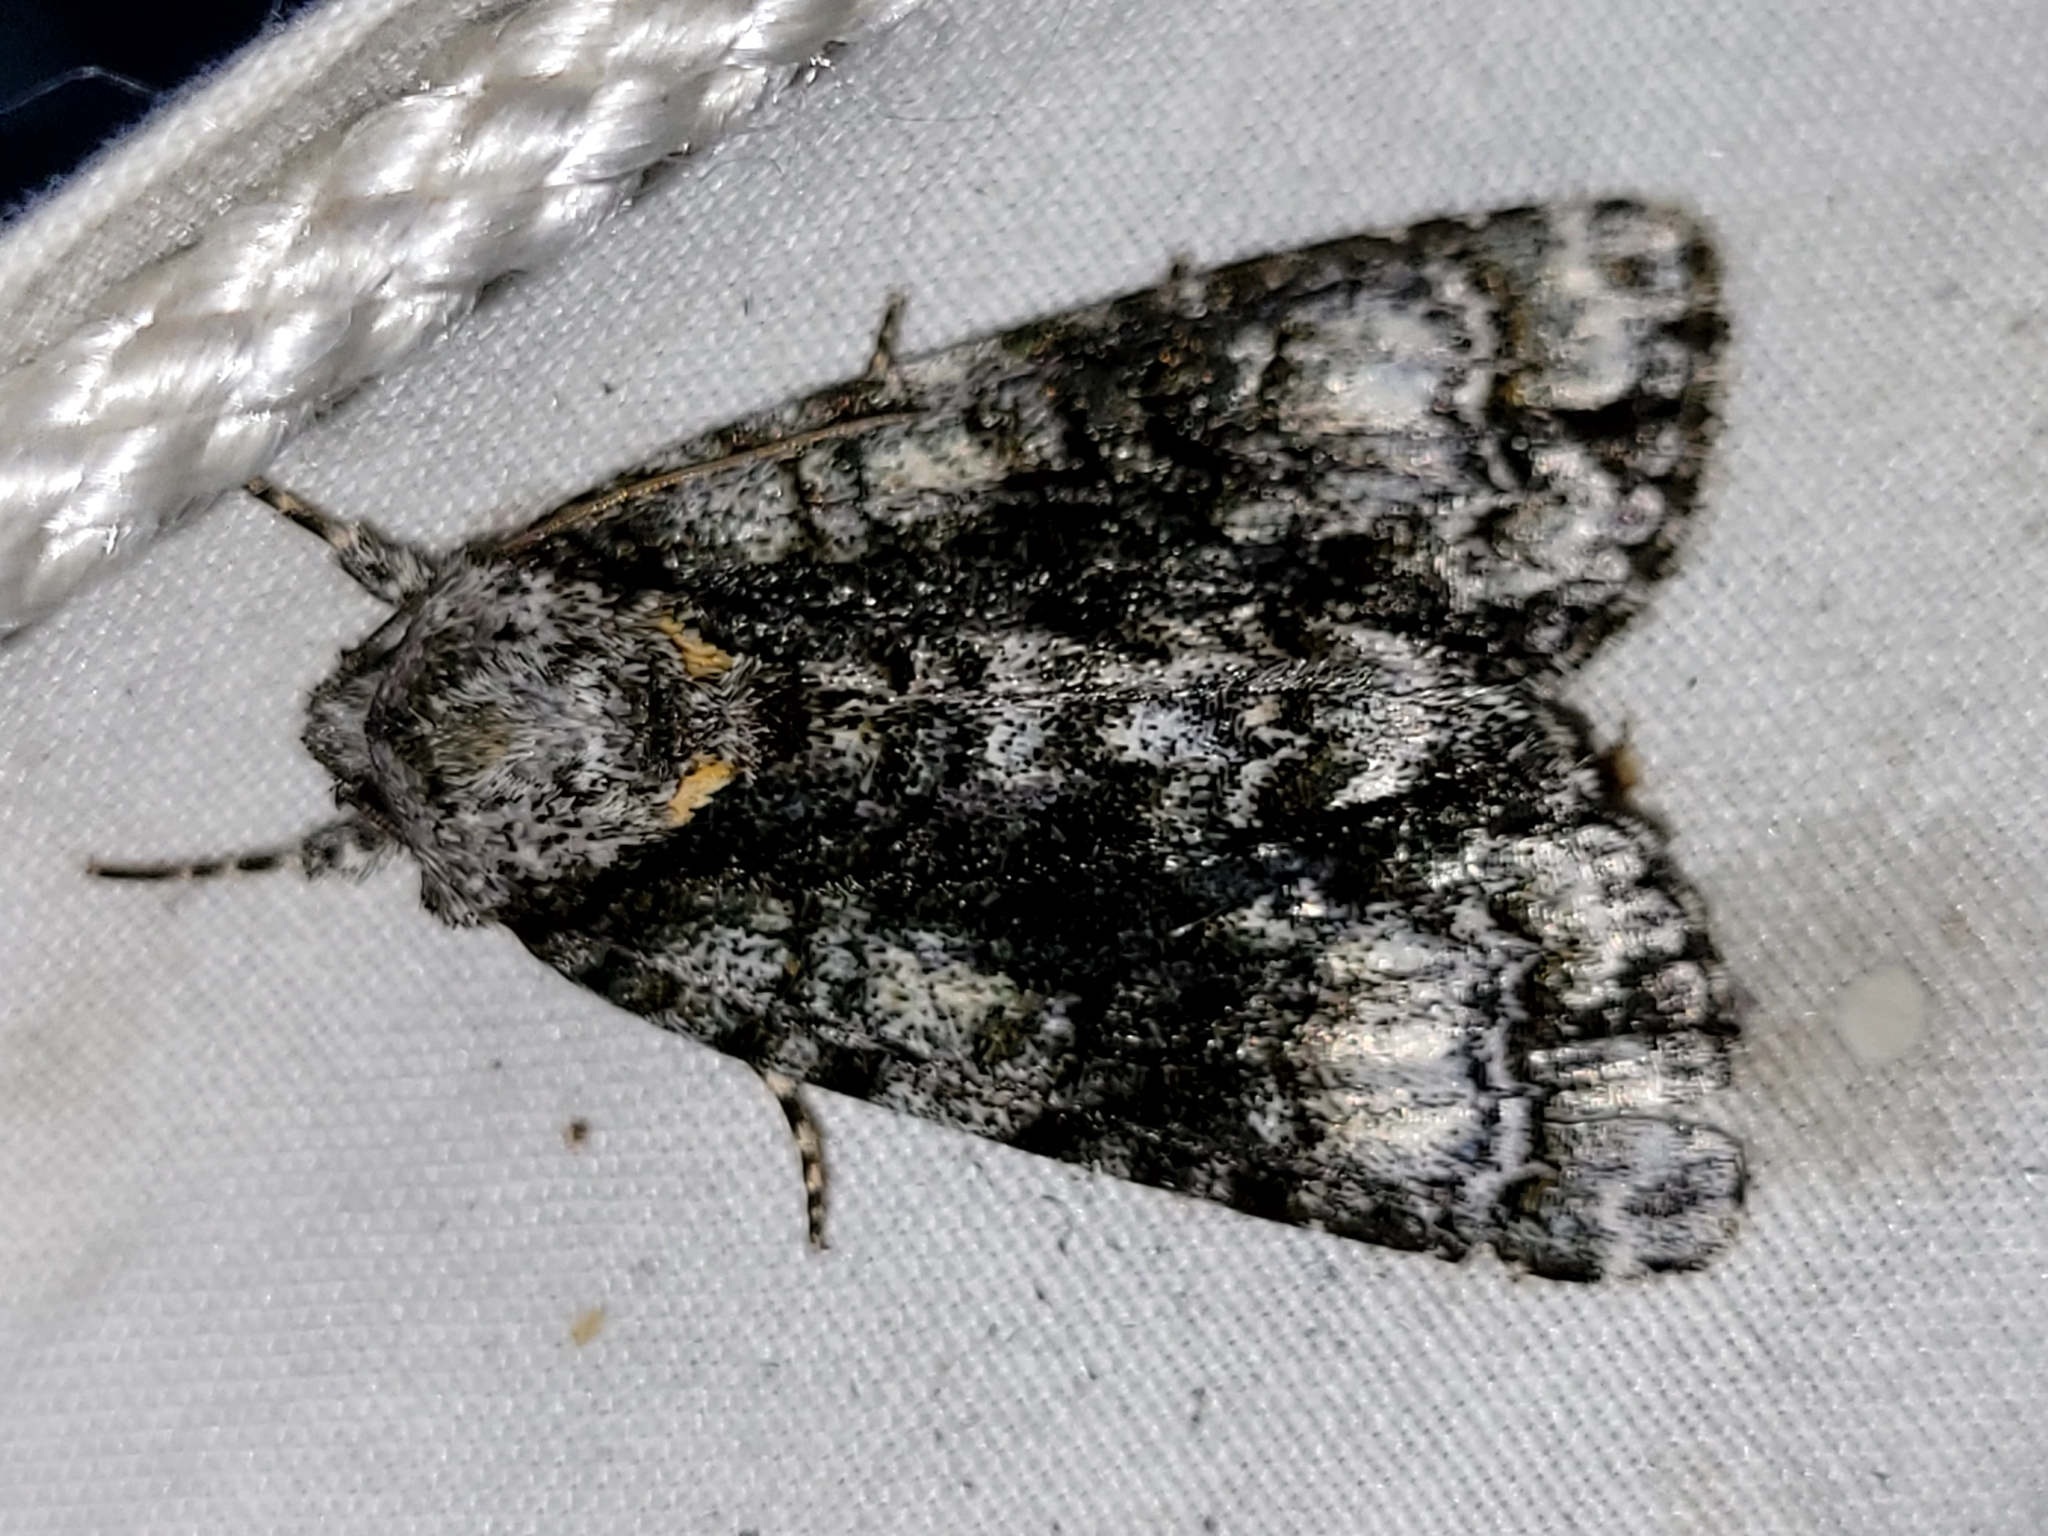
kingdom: Animalia
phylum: Arthropoda
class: Insecta
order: Lepidoptera
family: Noctuidae
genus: Acronicta
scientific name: Acronicta superans
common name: Splendid dagger
